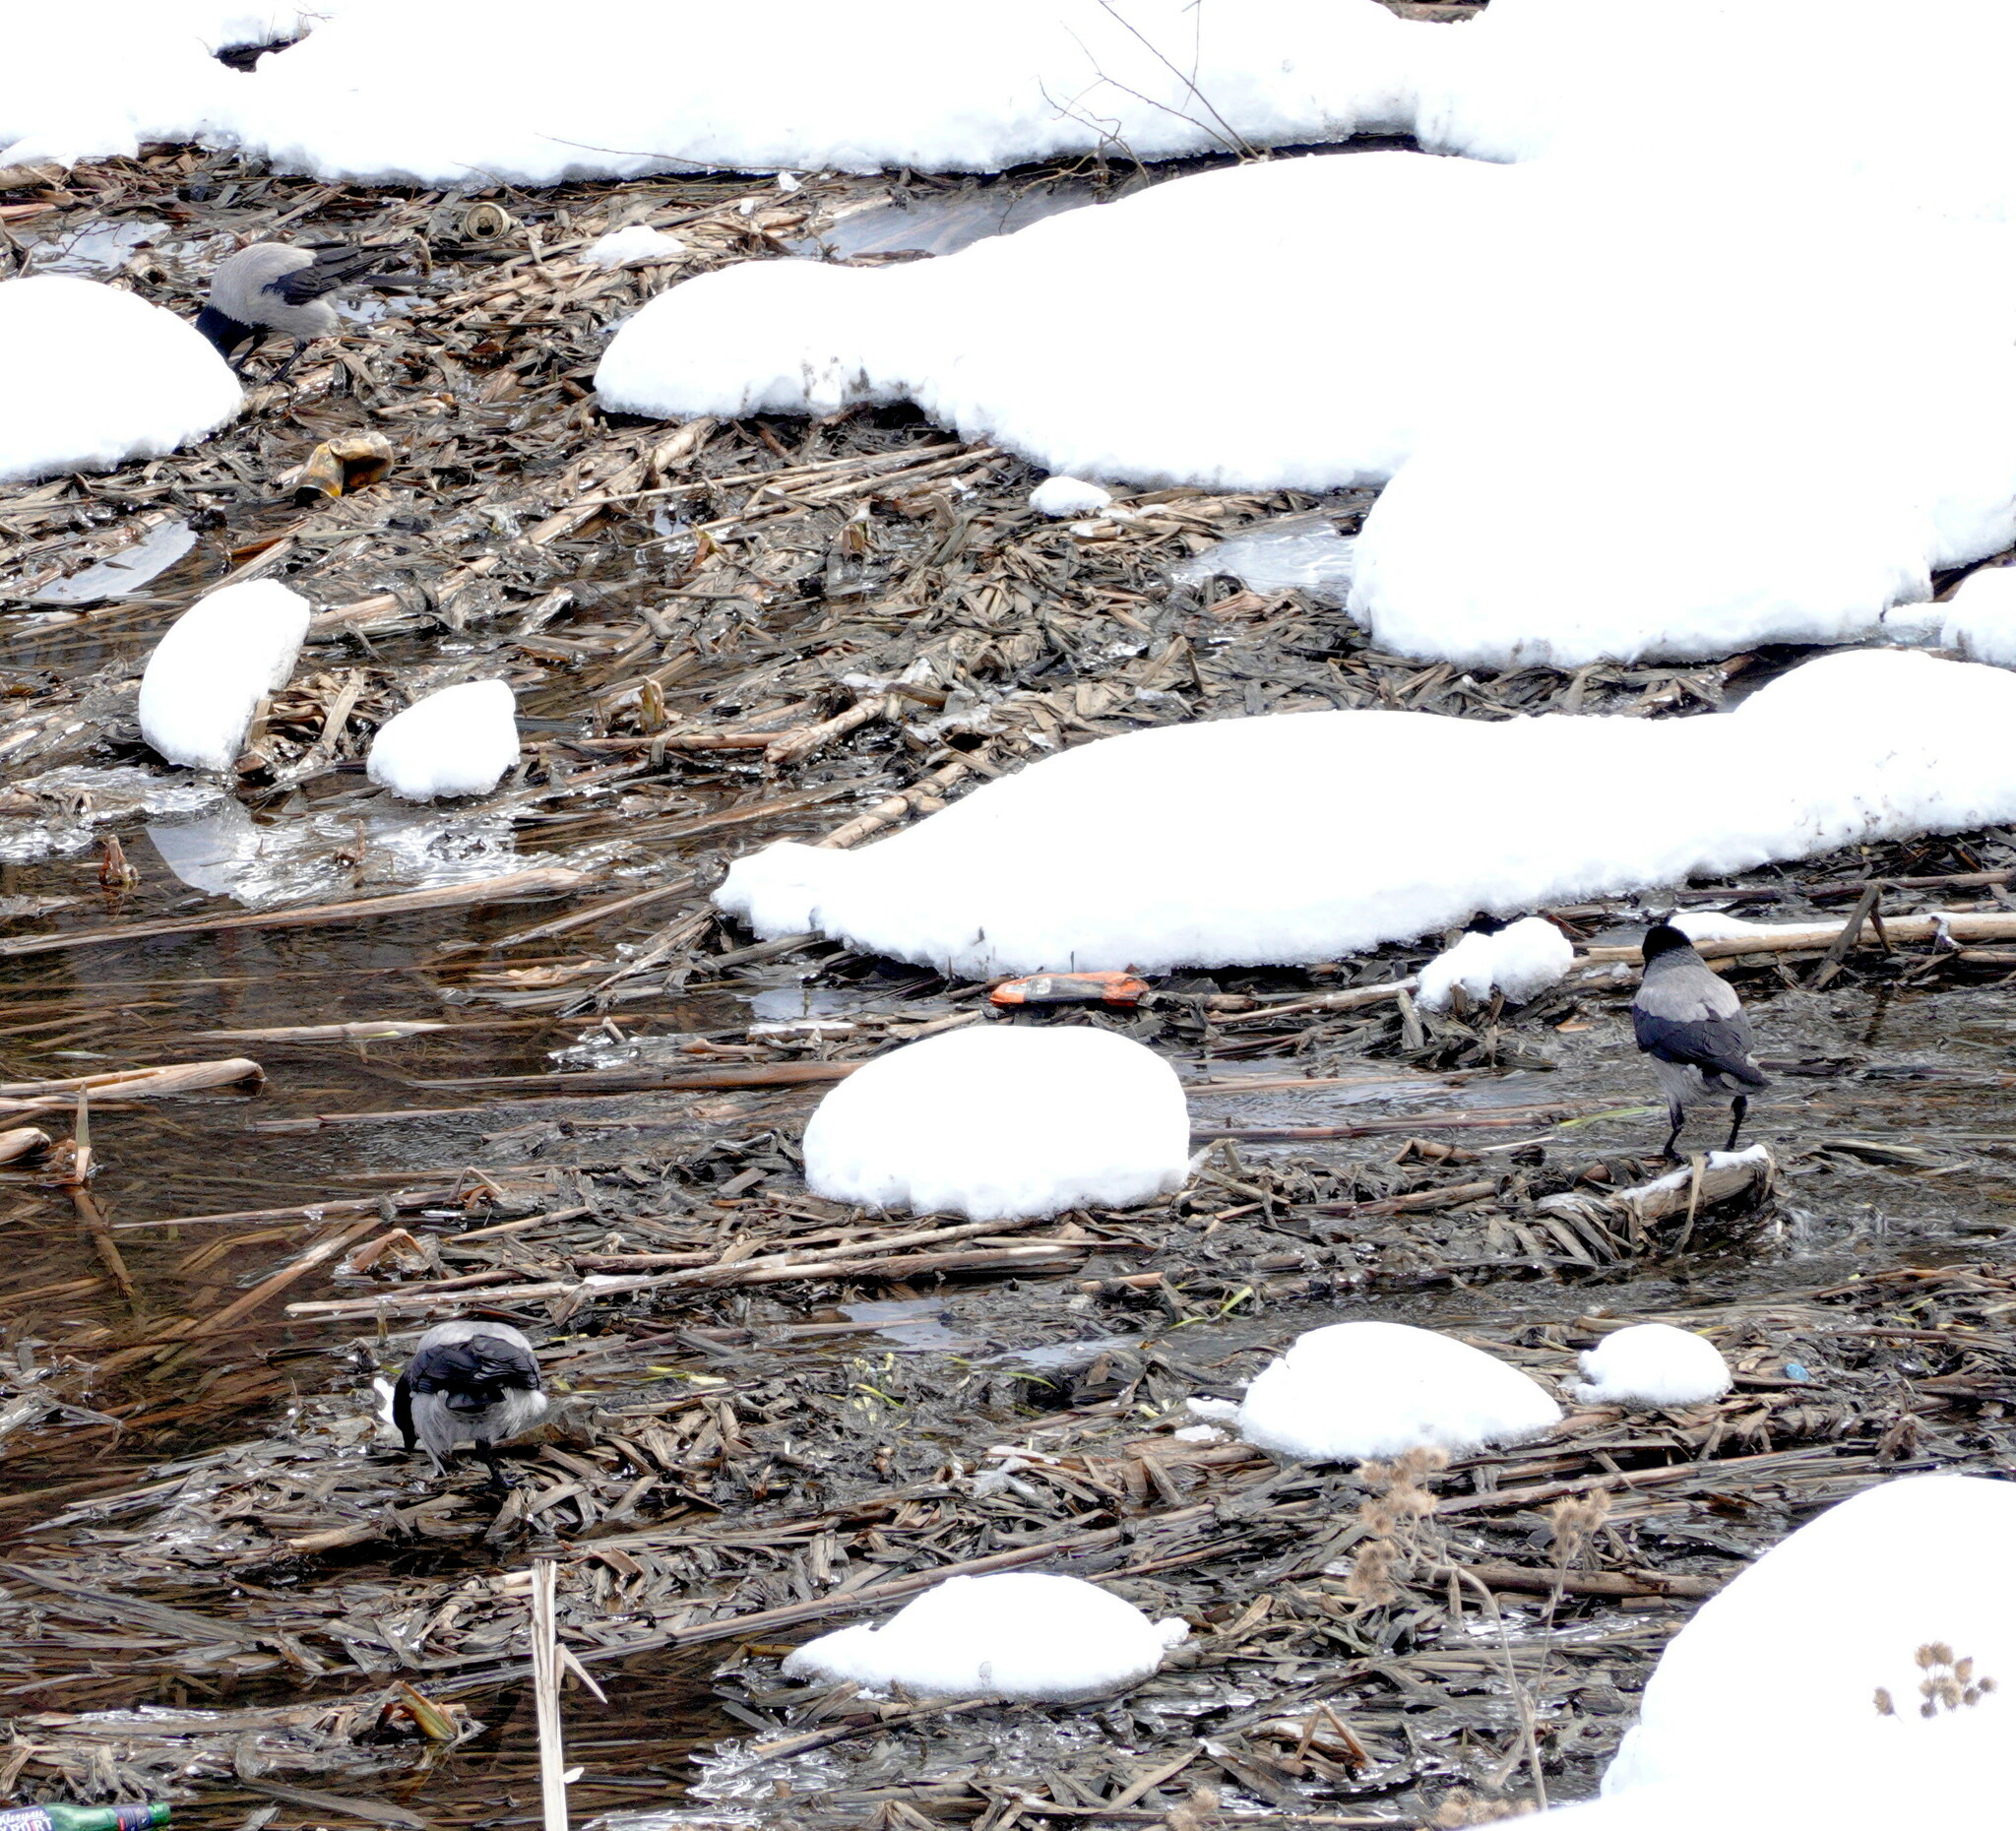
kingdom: Animalia
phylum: Chordata
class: Aves
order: Passeriformes
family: Corvidae
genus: Corvus
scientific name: Corvus cornix
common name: Hooded crow
